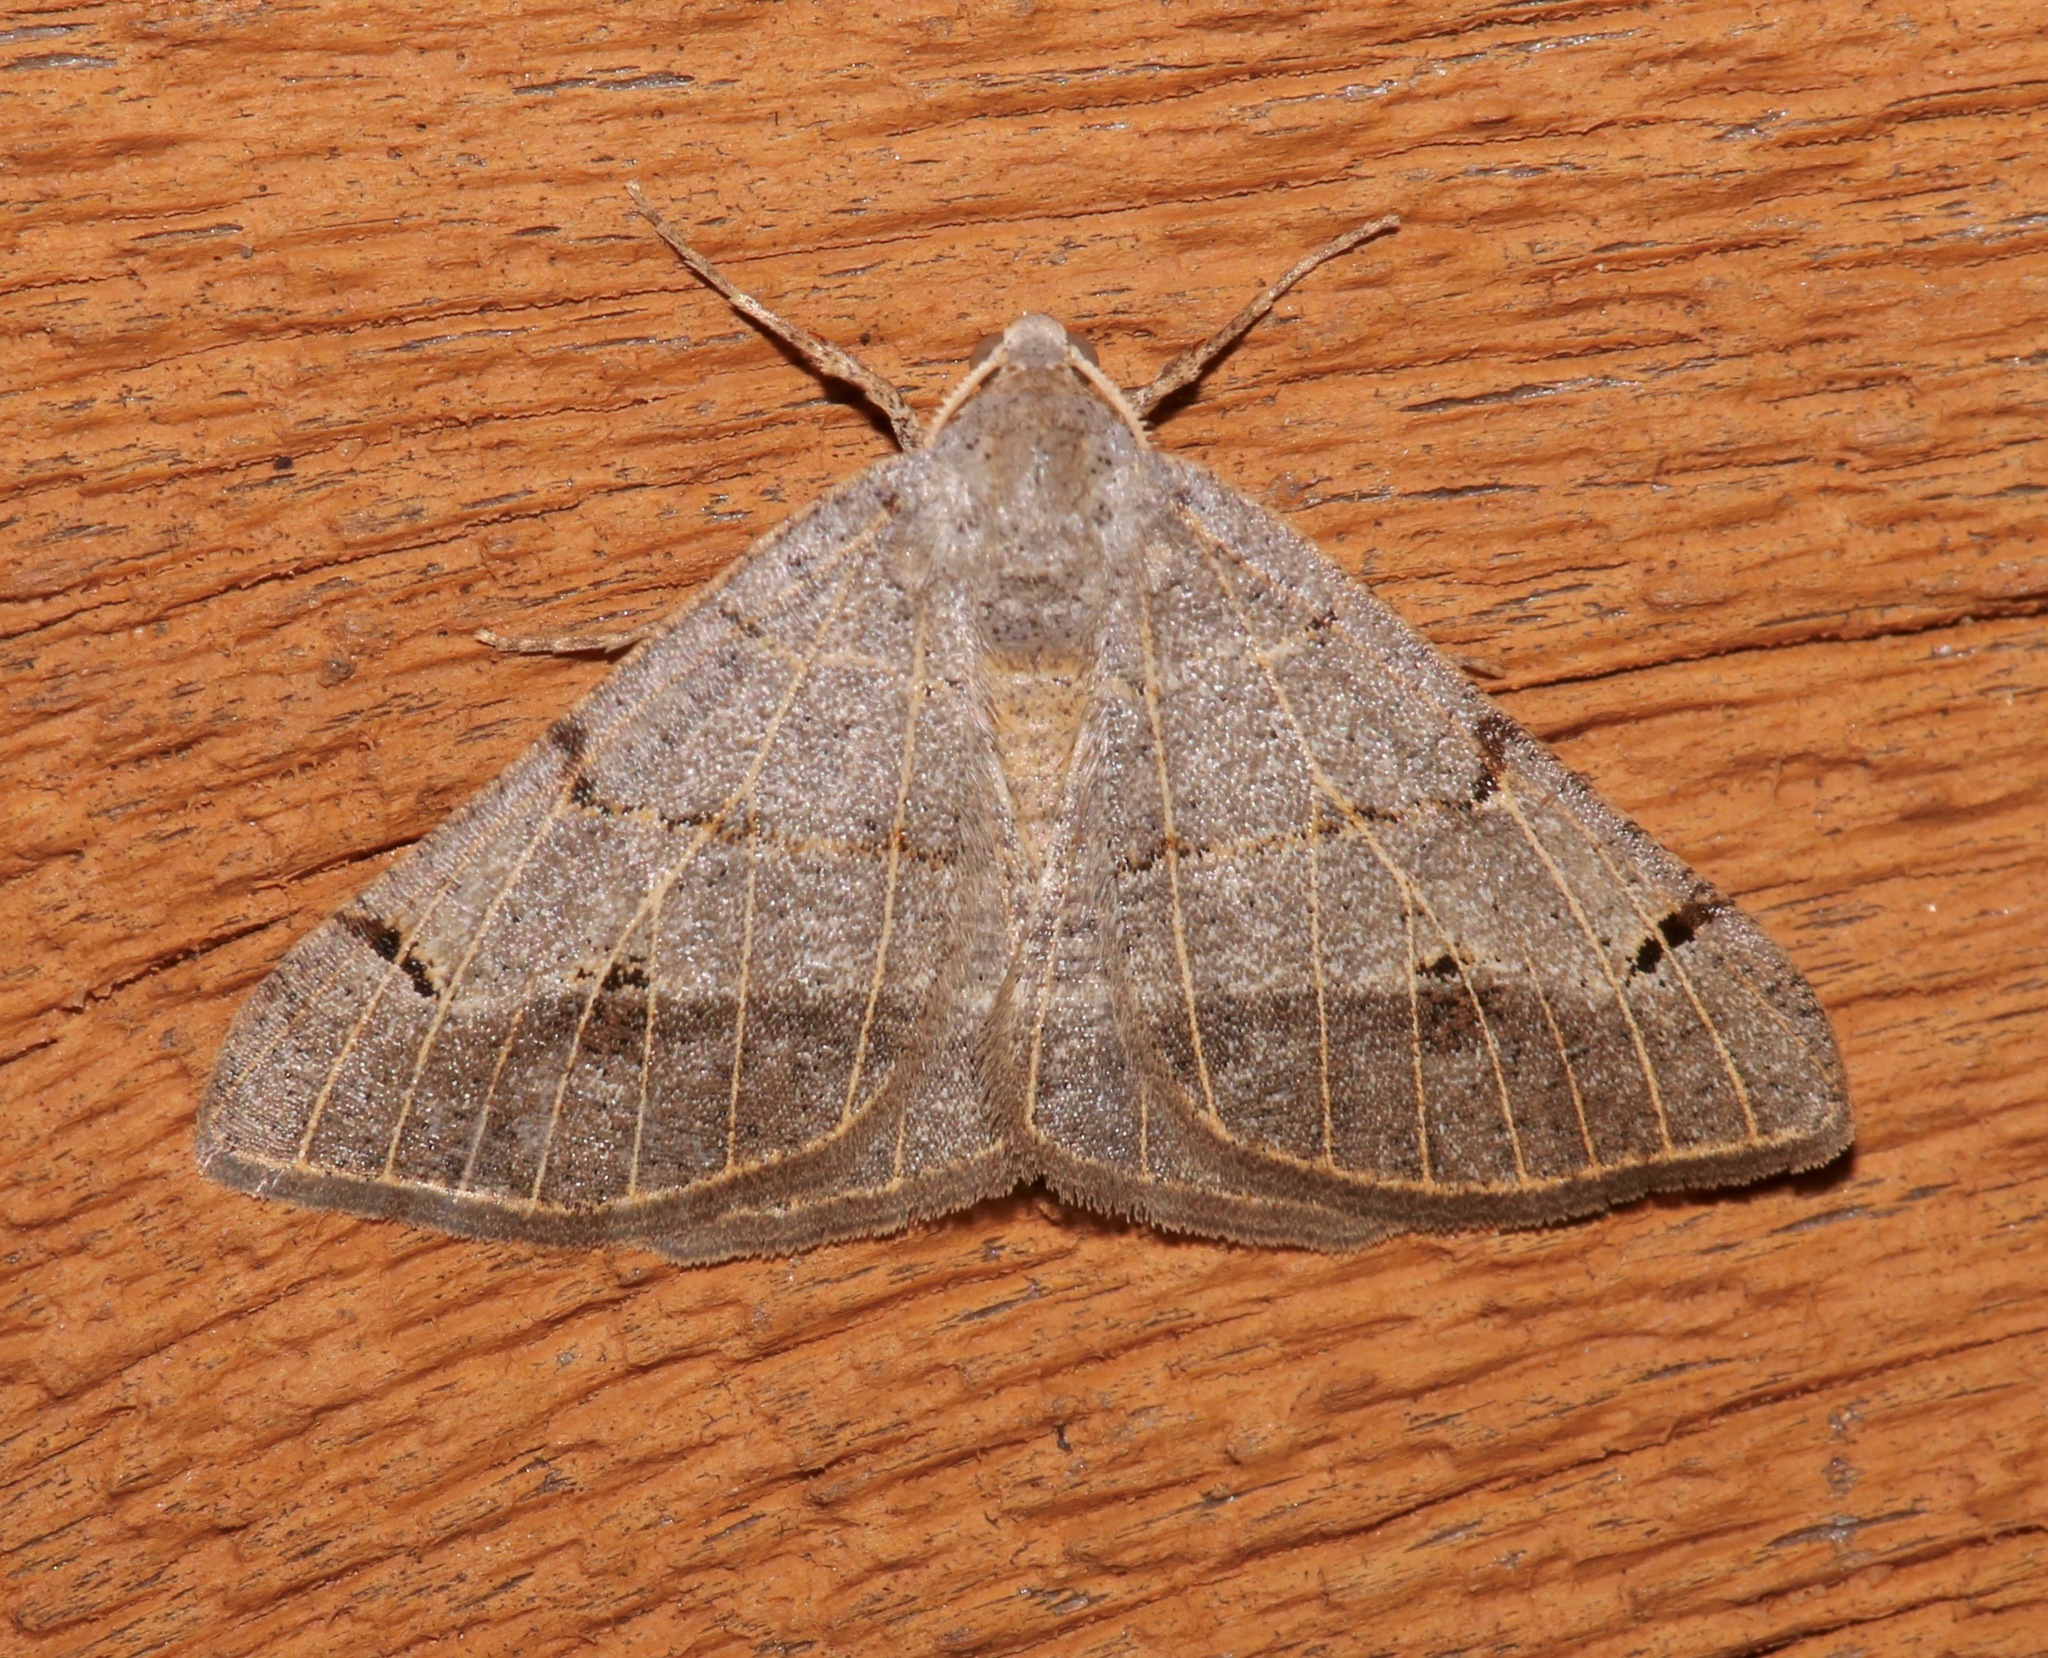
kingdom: Animalia
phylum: Arthropoda
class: Insecta
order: Lepidoptera
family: Geometridae
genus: Isturgia
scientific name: Isturgia dislocaria
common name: Pale-viened enconista
